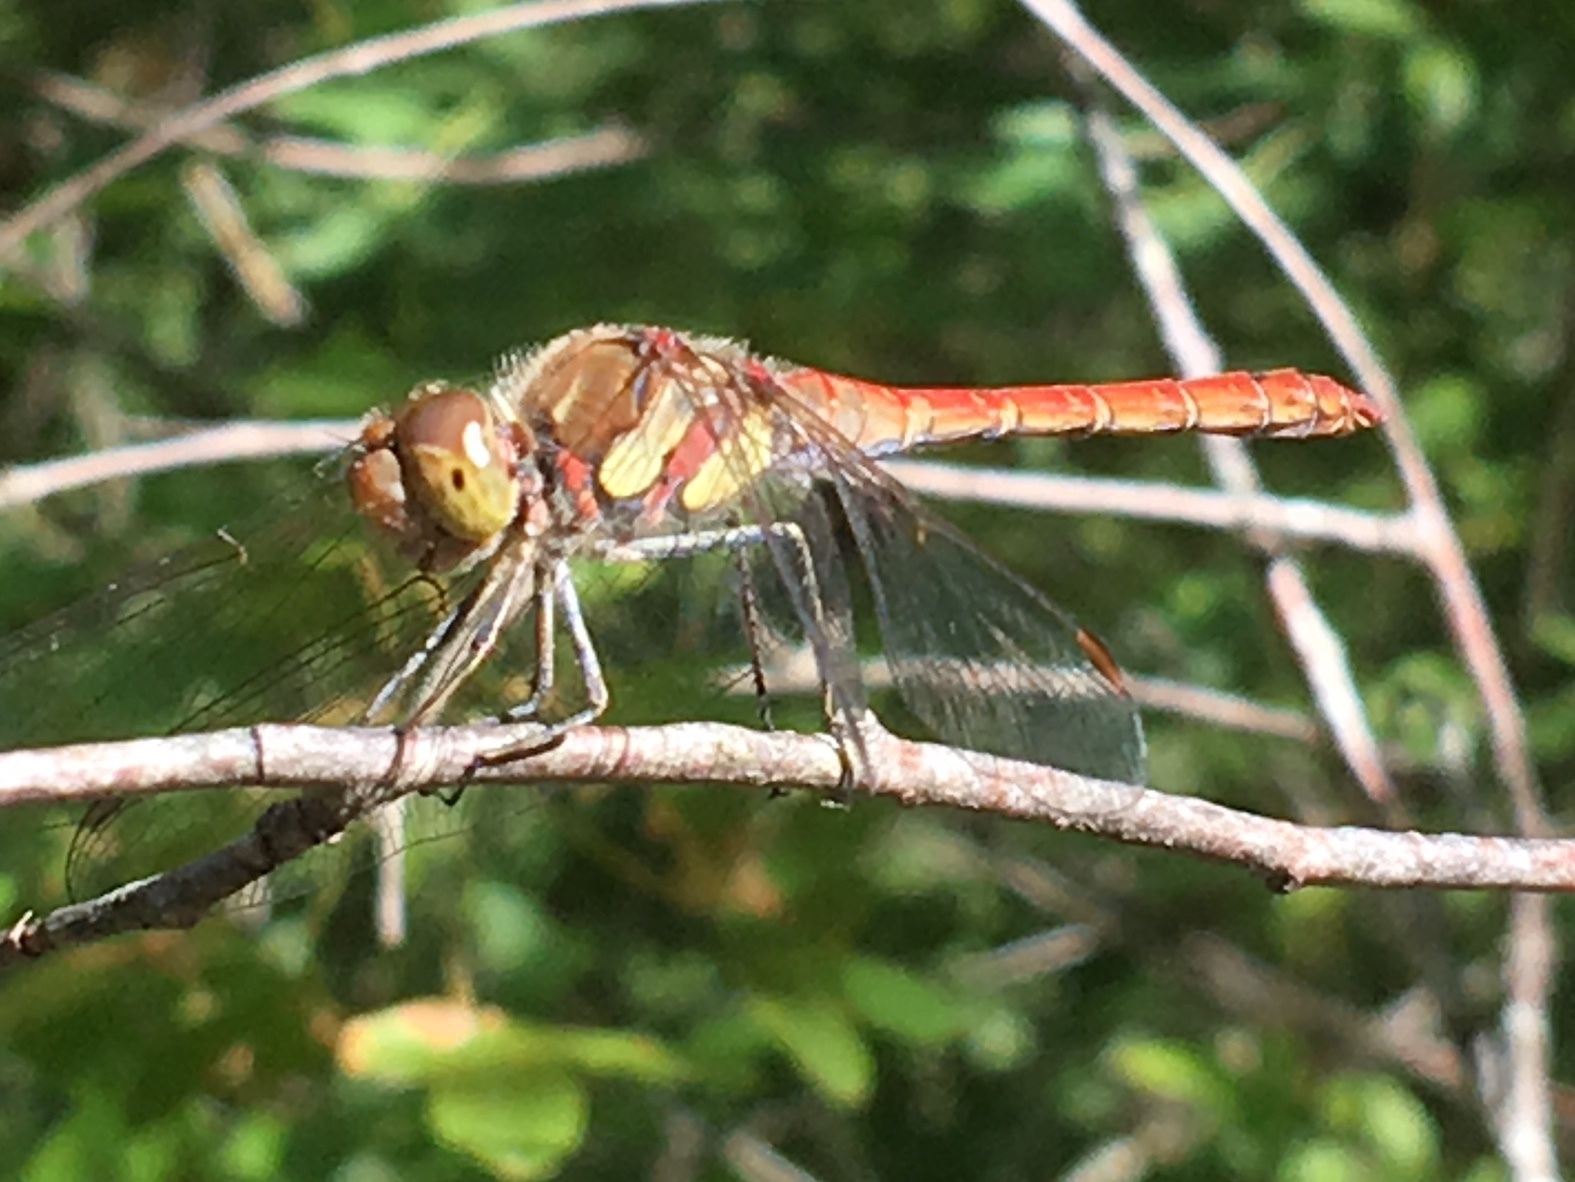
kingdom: Animalia
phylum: Arthropoda
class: Insecta
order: Odonata
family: Libellulidae
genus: Sympetrum
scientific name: Sympetrum striolatum
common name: Common darter
